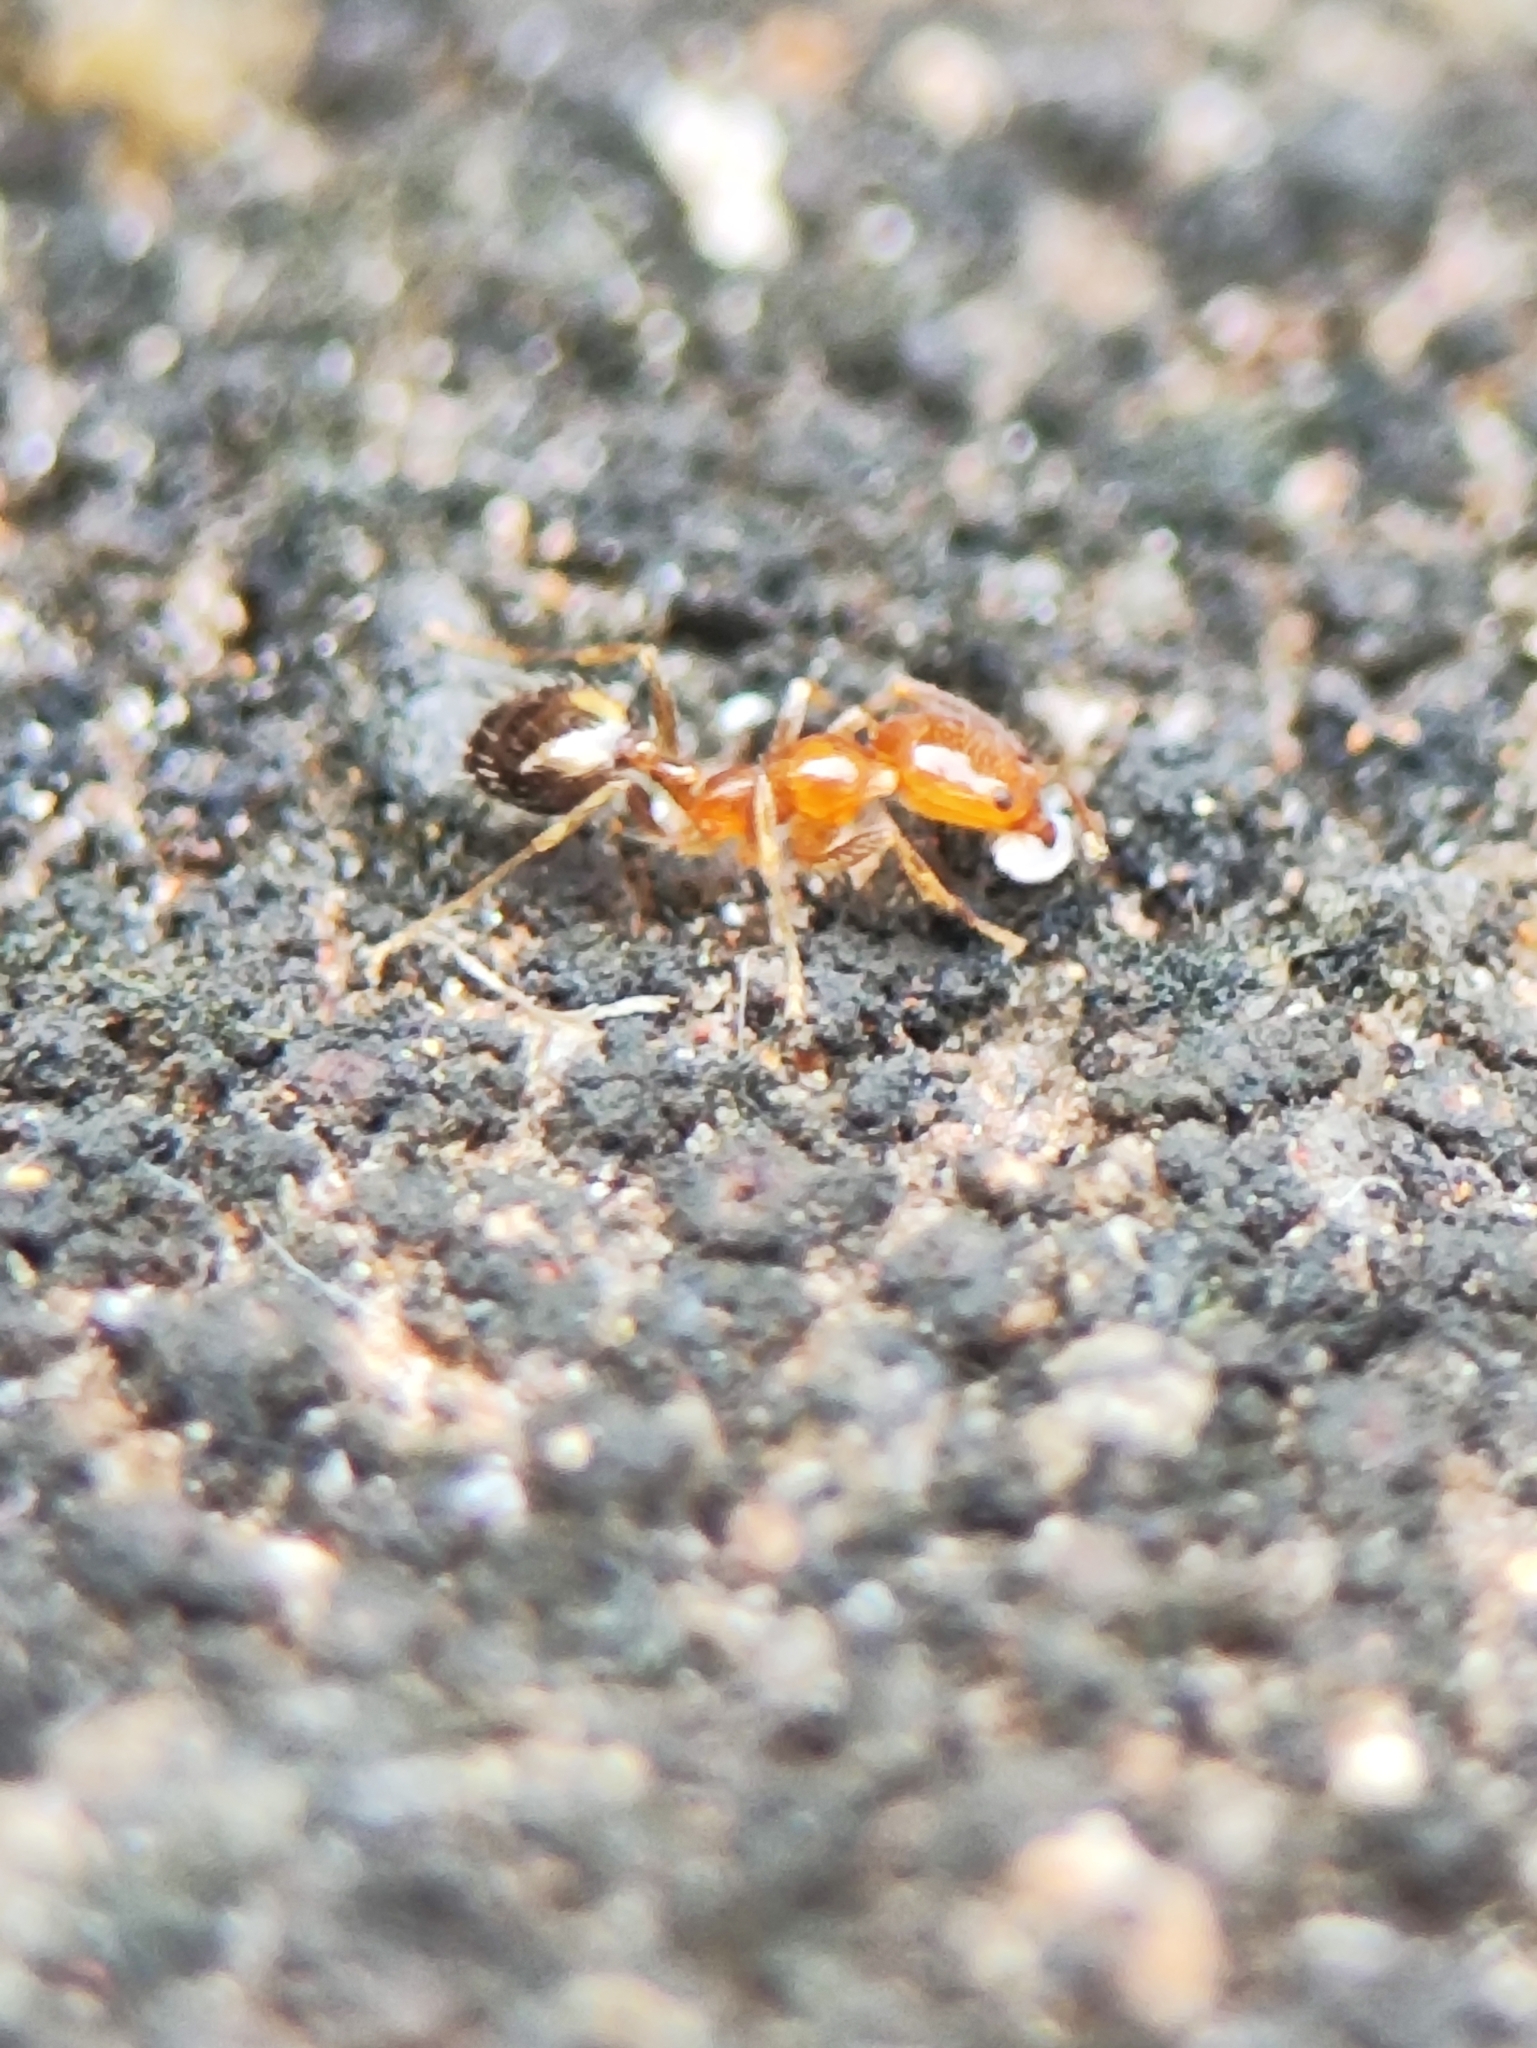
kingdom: Animalia
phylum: Arthropoda
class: Insecta
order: Hymenoptera
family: Formicidae
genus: Monomorium
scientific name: Monomorium destructor
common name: Destructive trailing ant
